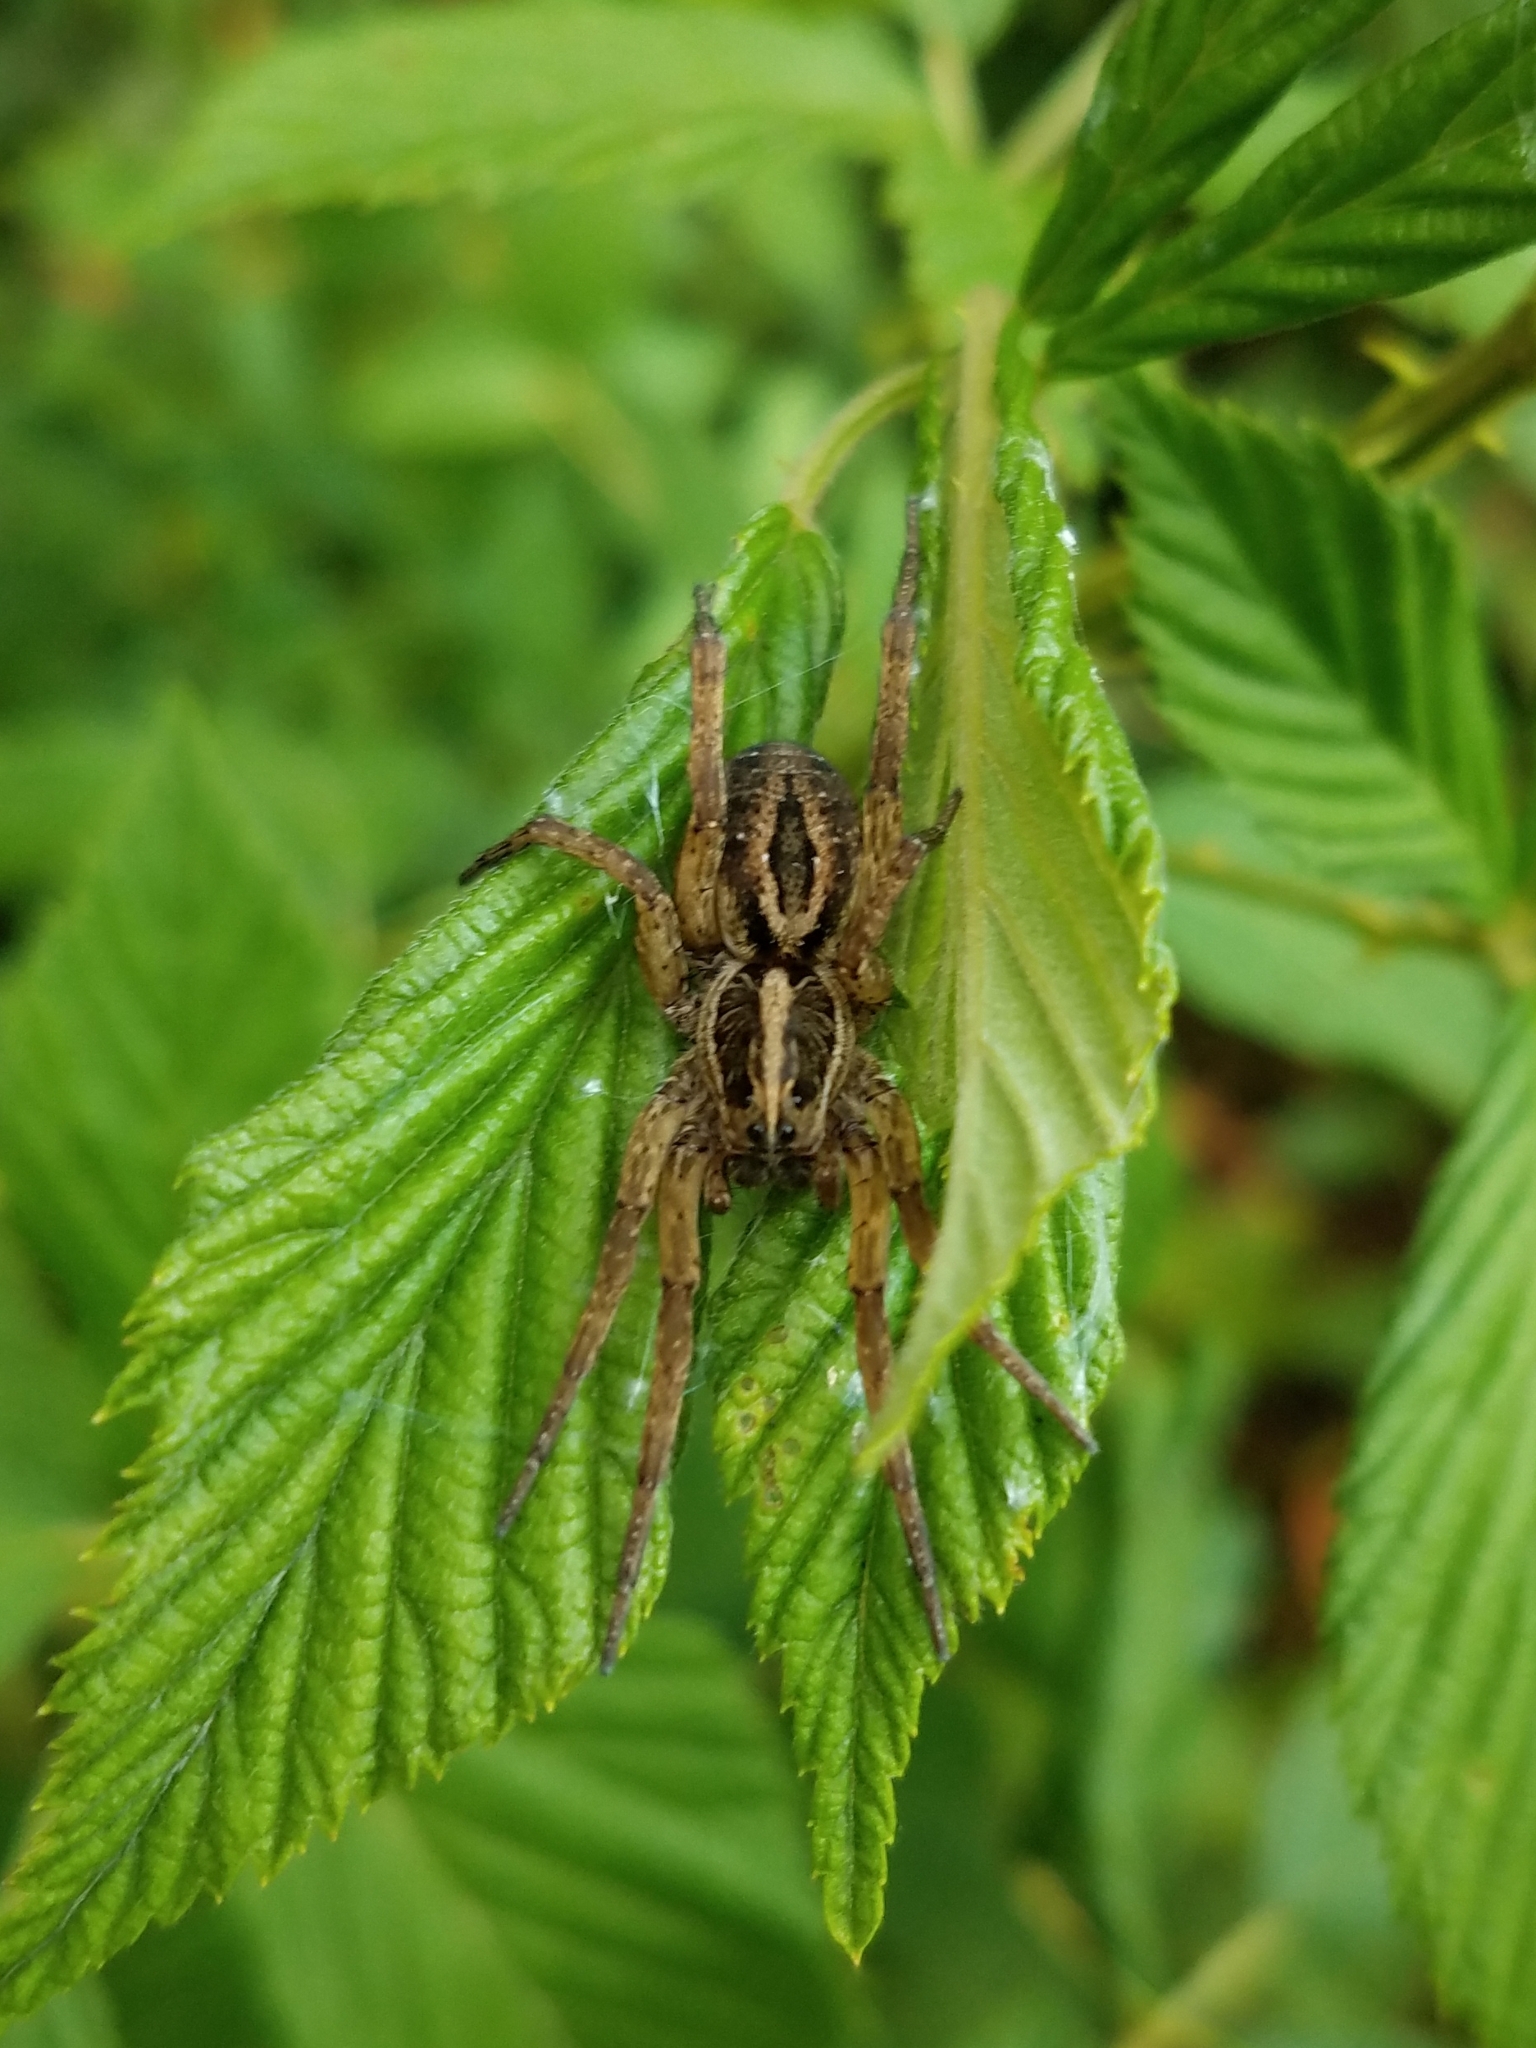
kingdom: Animalia
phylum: Arthropoda
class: Arachnida
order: Araneae
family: Lycosidae
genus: Tigrosa
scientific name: Tigrosa annexa
